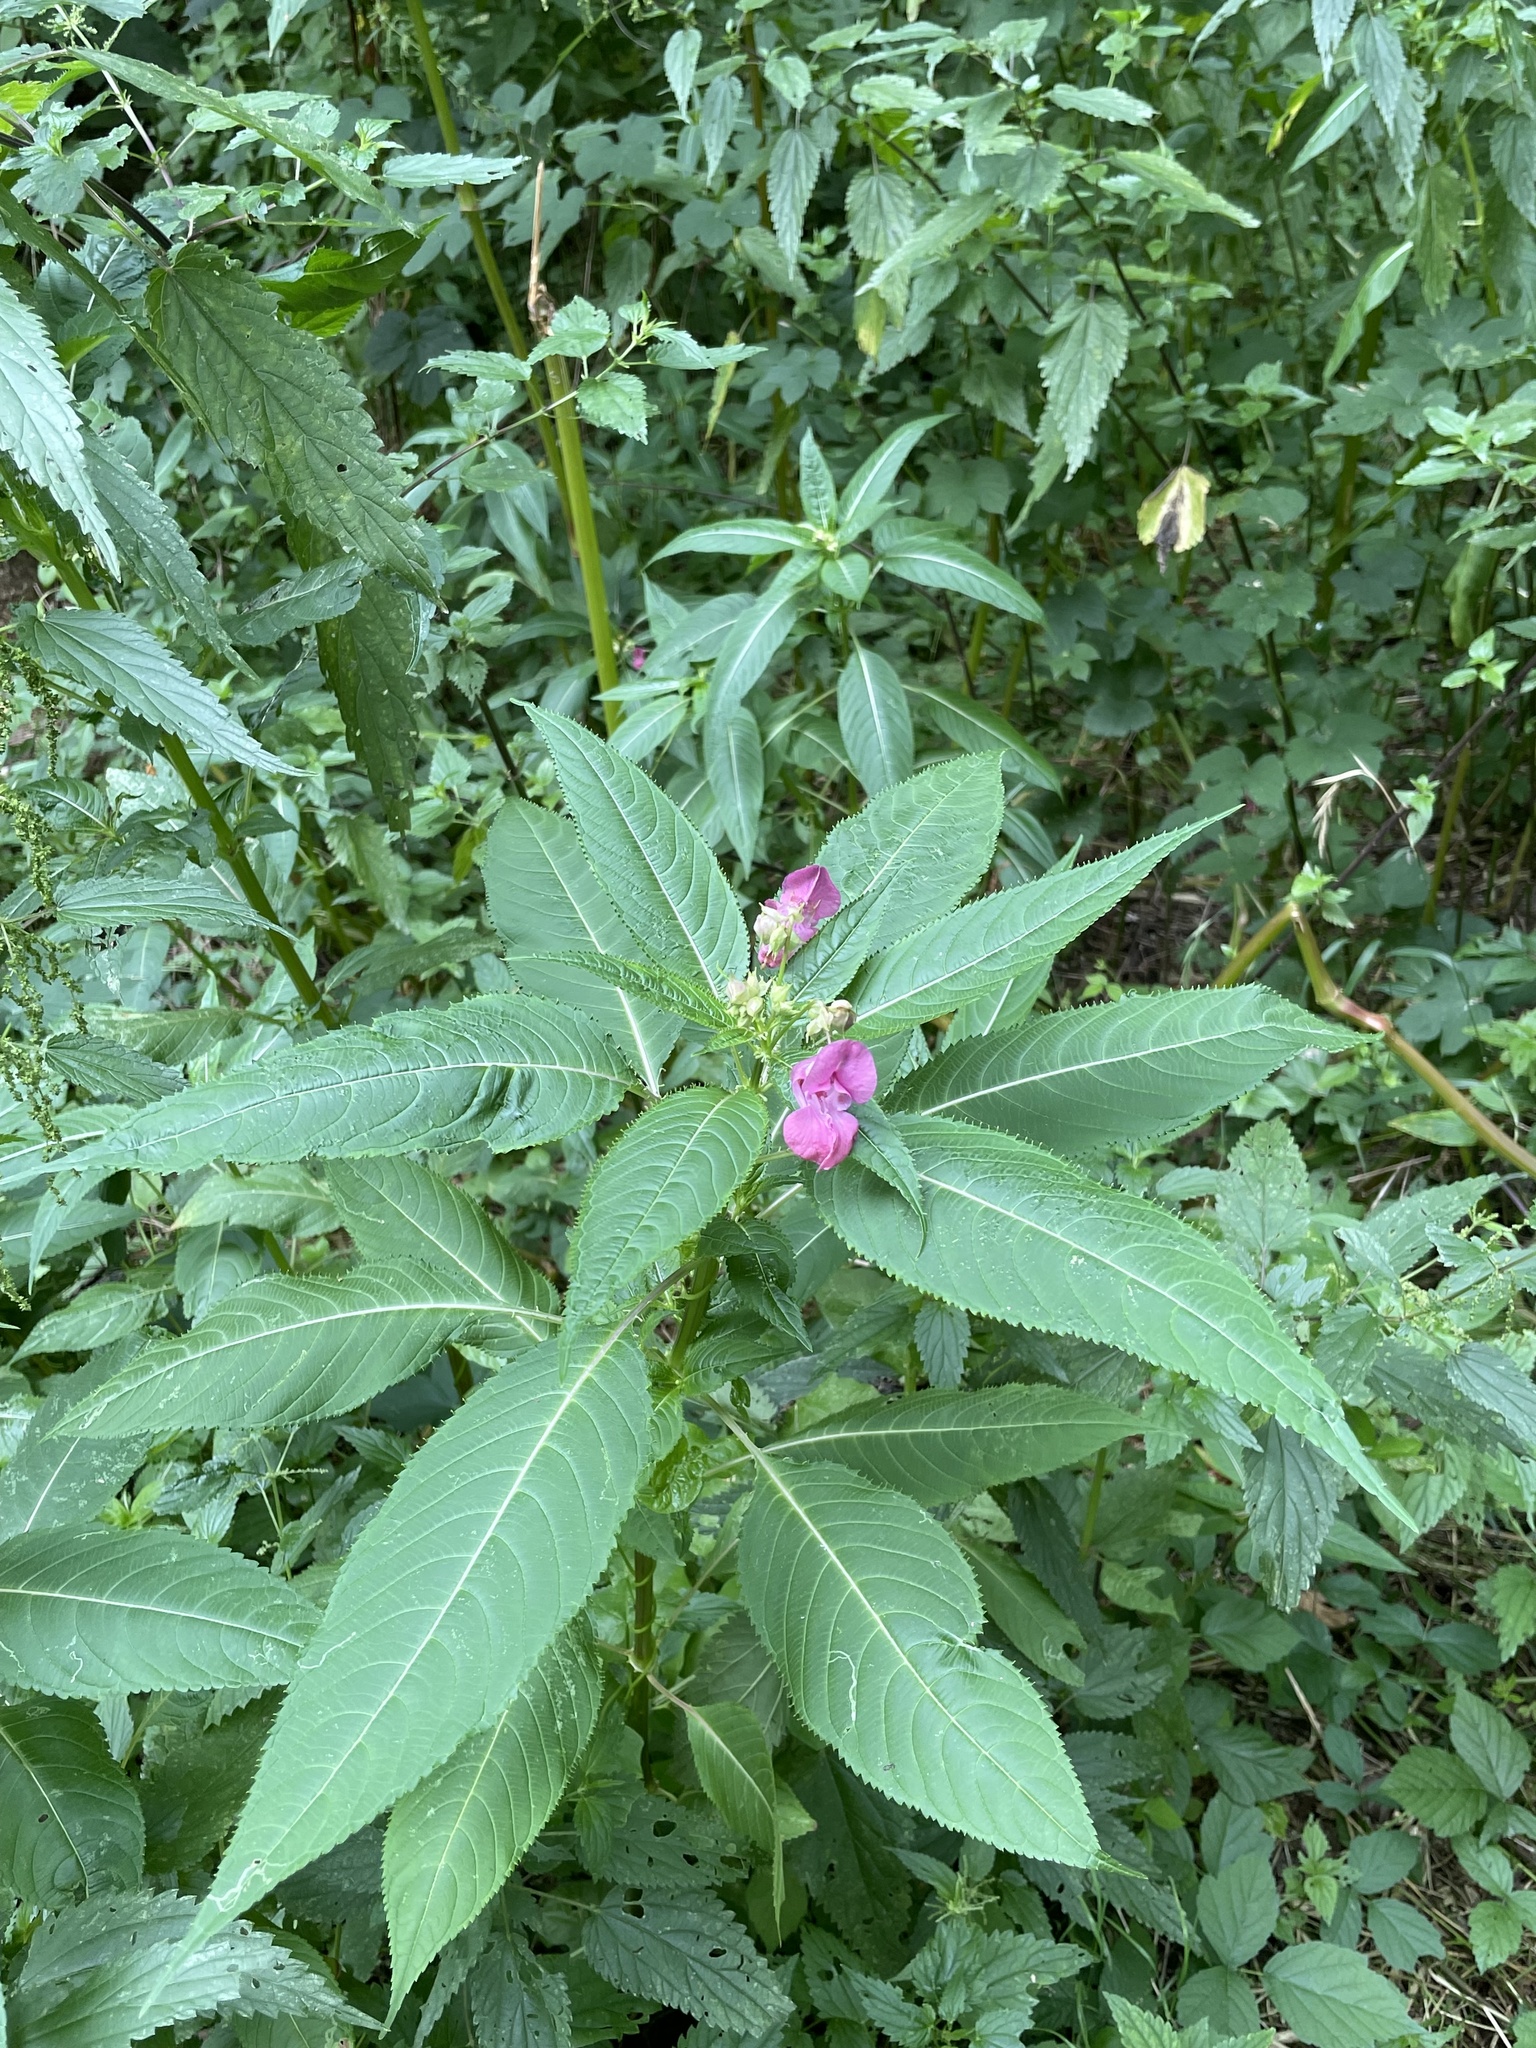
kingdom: Plantae
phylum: Tracheophyta
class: Magnoliopsida
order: Ericales
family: Balsaminaceae
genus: Impatiens
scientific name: Impatiens glandulifera
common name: Himalayan balsam
